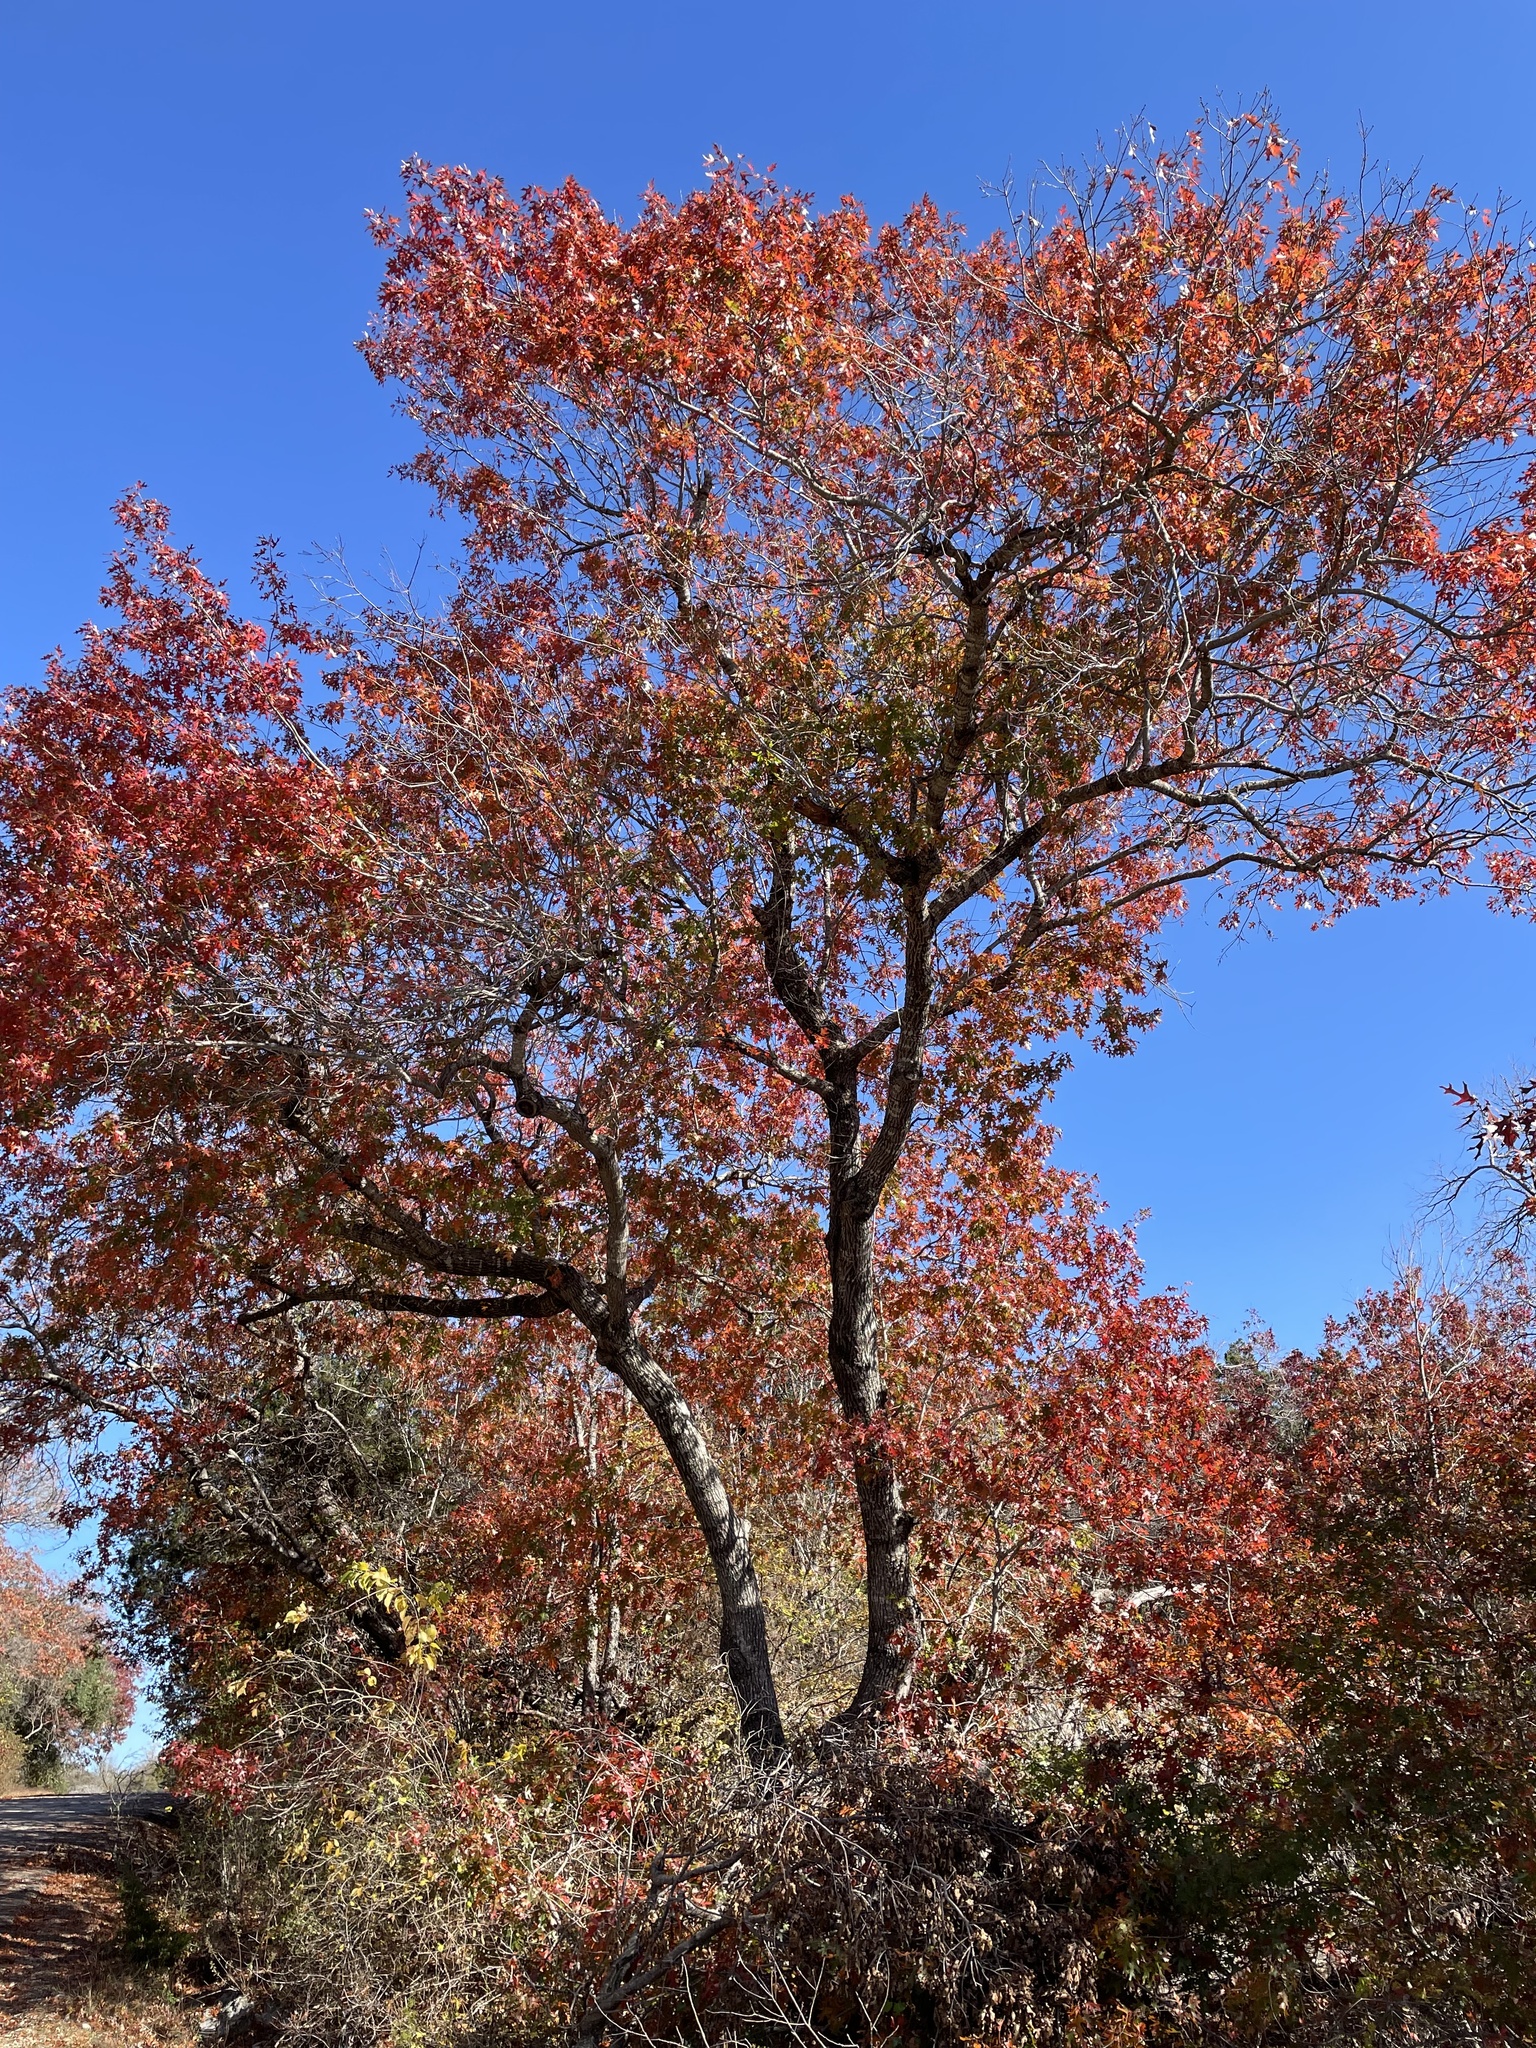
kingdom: Plantae
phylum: Tracheophyta
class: Magnoliopsida
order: Fagales
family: Fagaceae
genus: Quercus
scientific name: Quercus buckleyi
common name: Buckley oak
